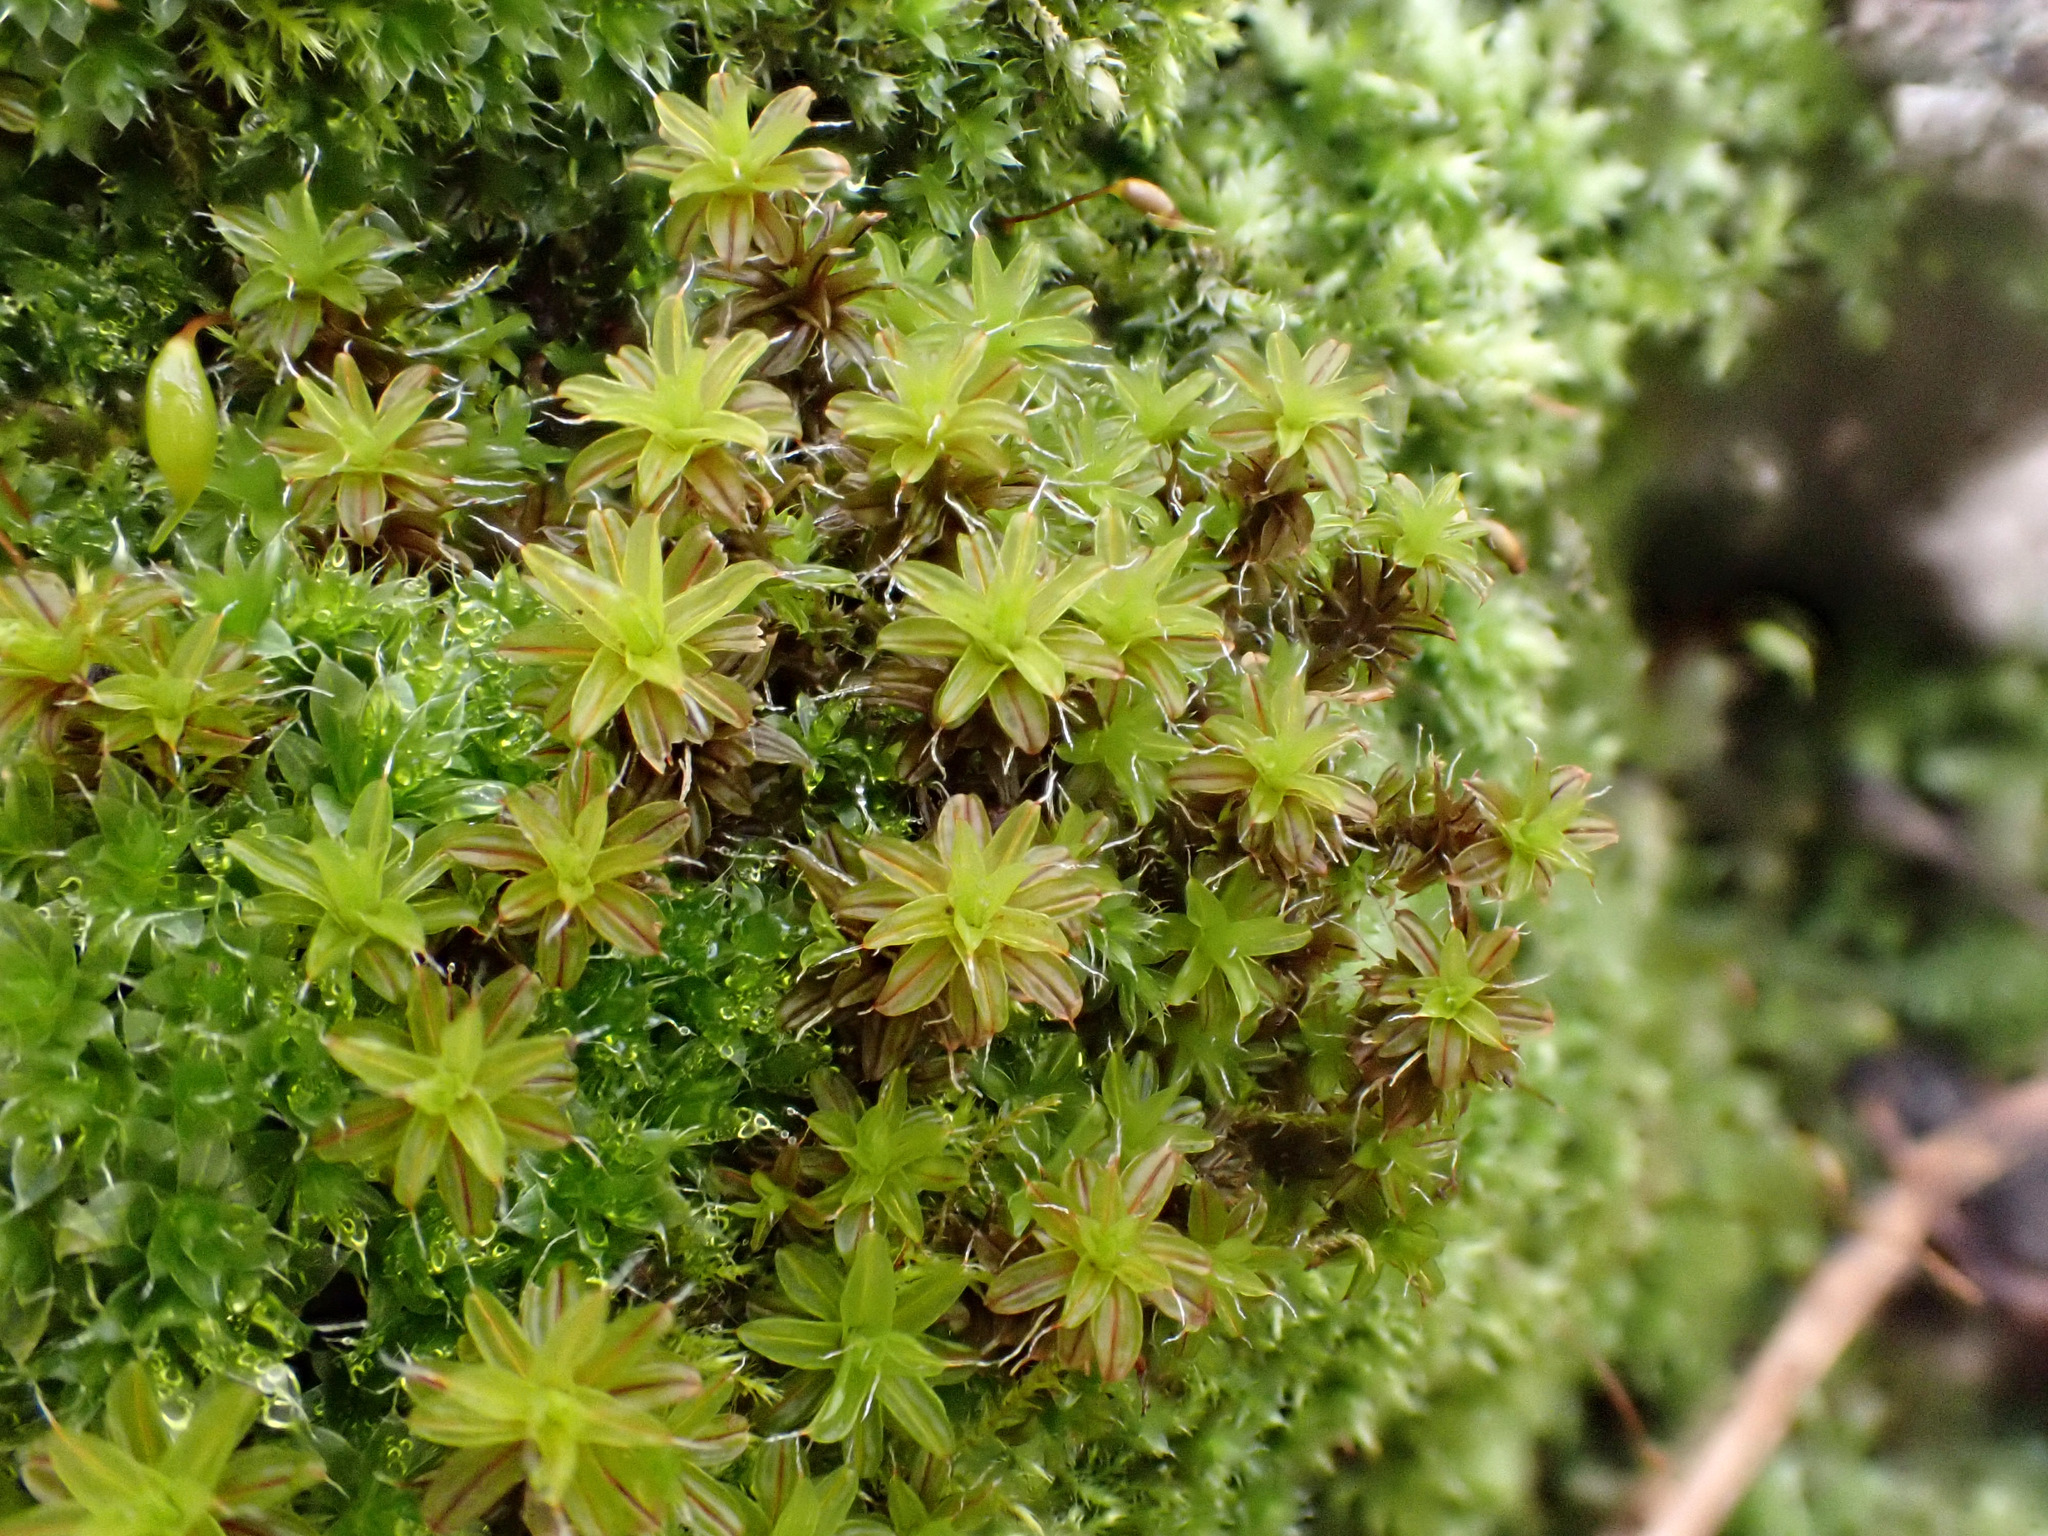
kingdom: Plantae
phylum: Bryophyta
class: Bryopsida
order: Pottiales
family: Pottiaceae
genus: Syntrichia
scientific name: Syntrichia ruralis
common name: Sidewalk screw moss
